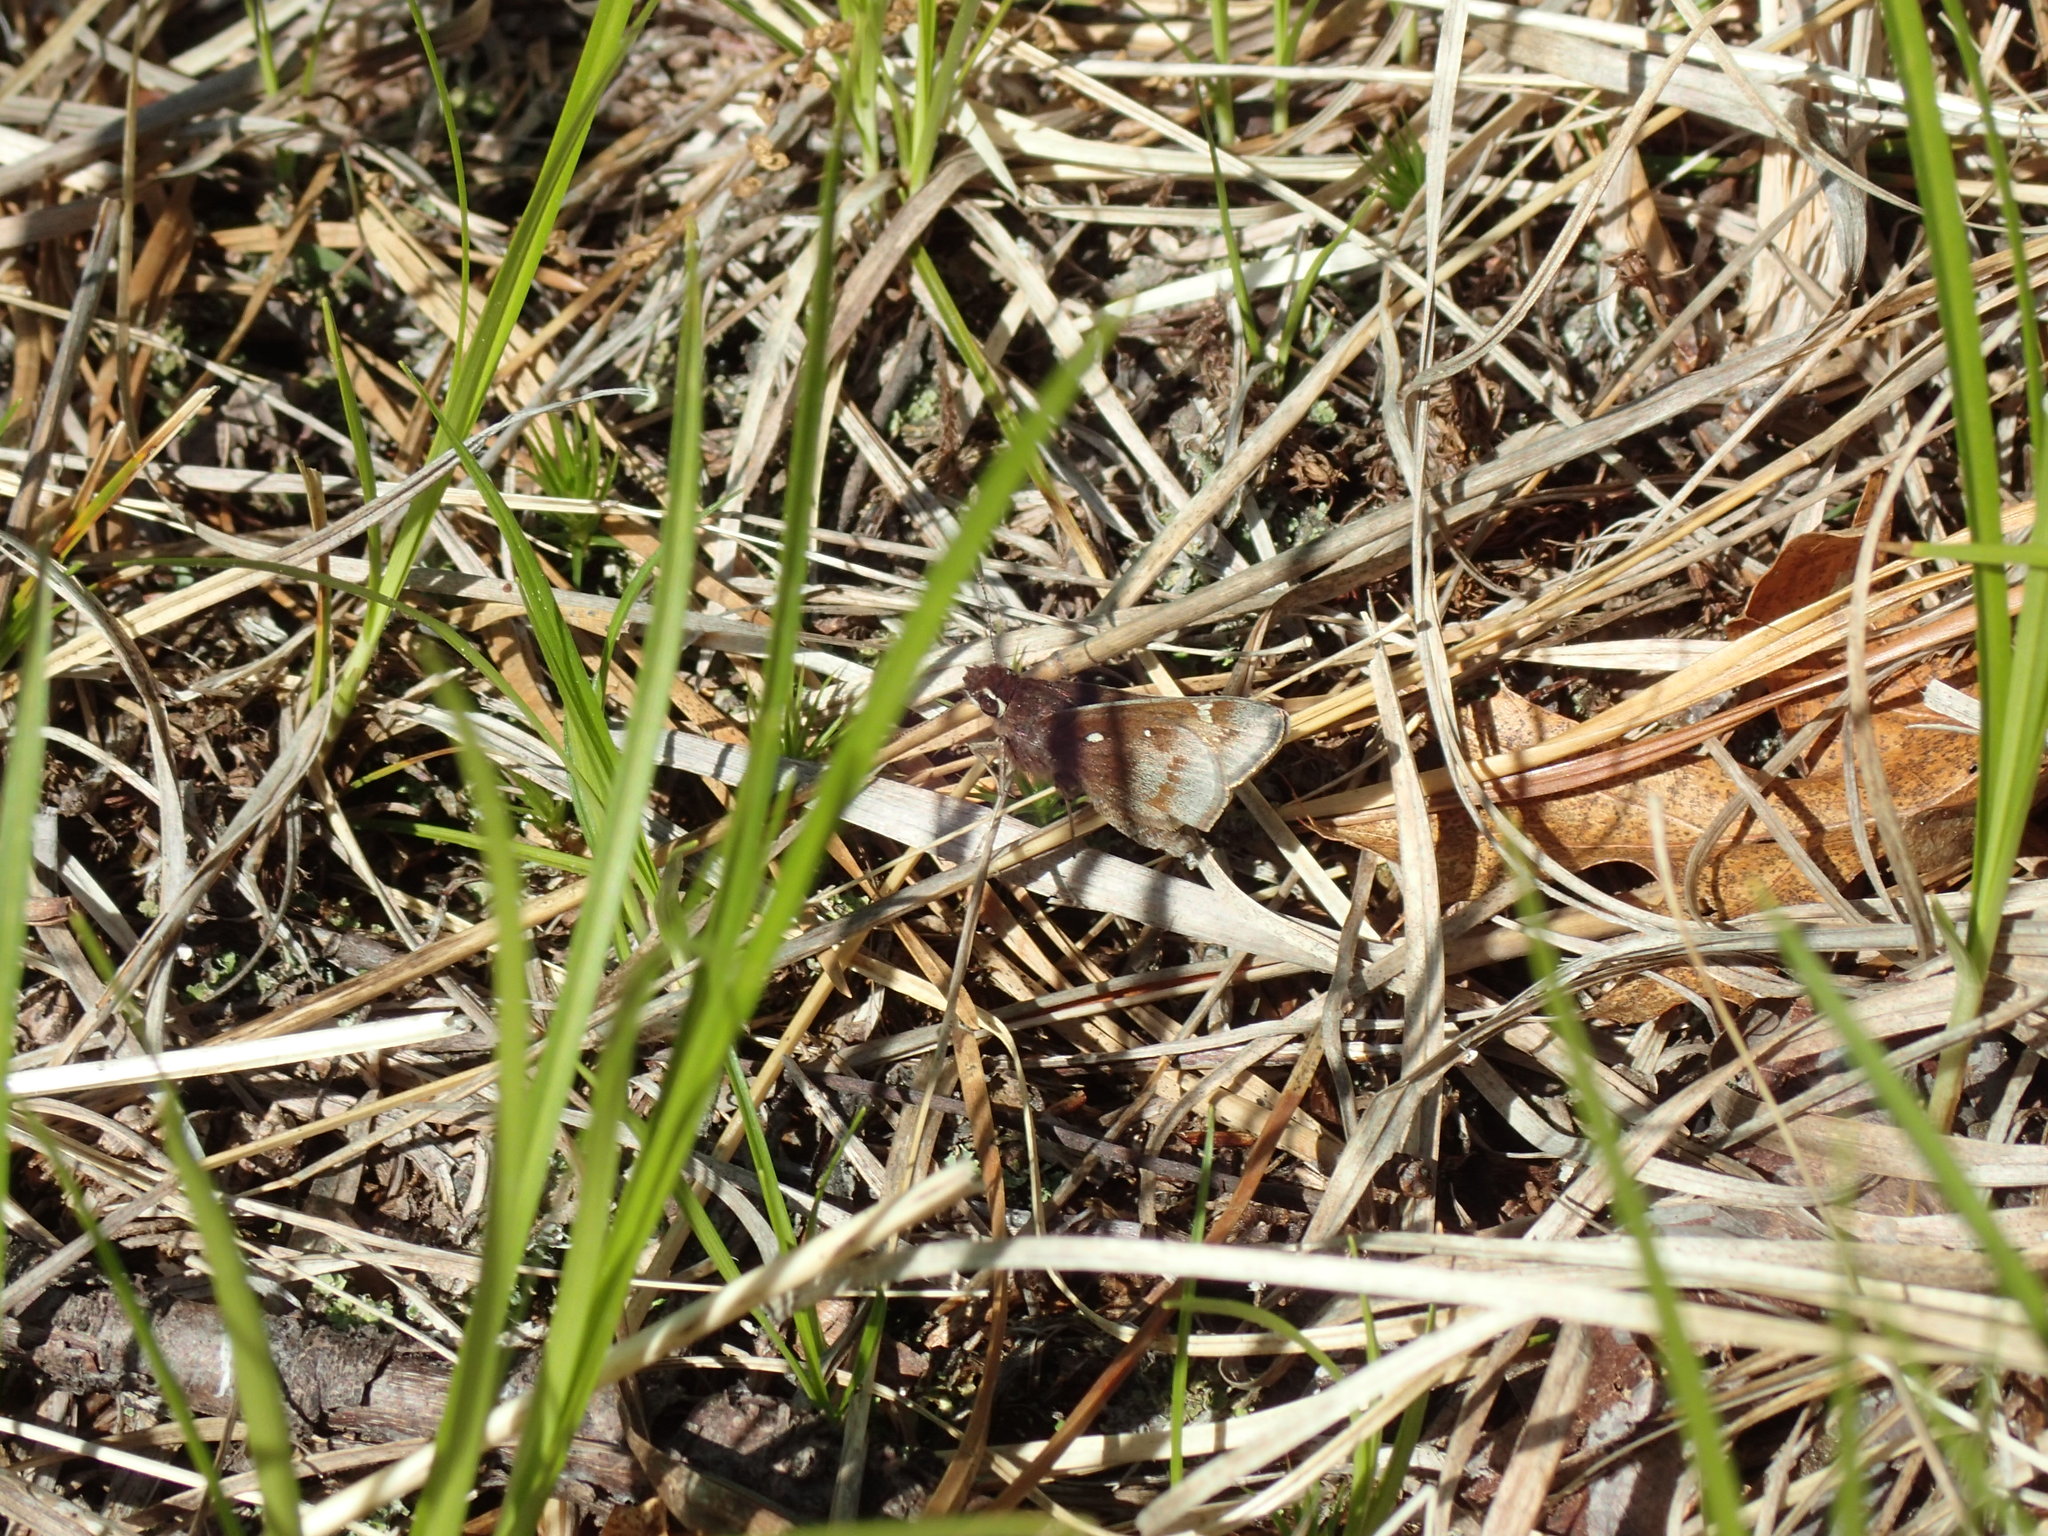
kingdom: Animalia
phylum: Arthropoda
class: Insecta
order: Lepidoptera
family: Hesperiidae
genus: Atrytonopsis
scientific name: Atrytonopsis hianna
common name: Dusted skipper
